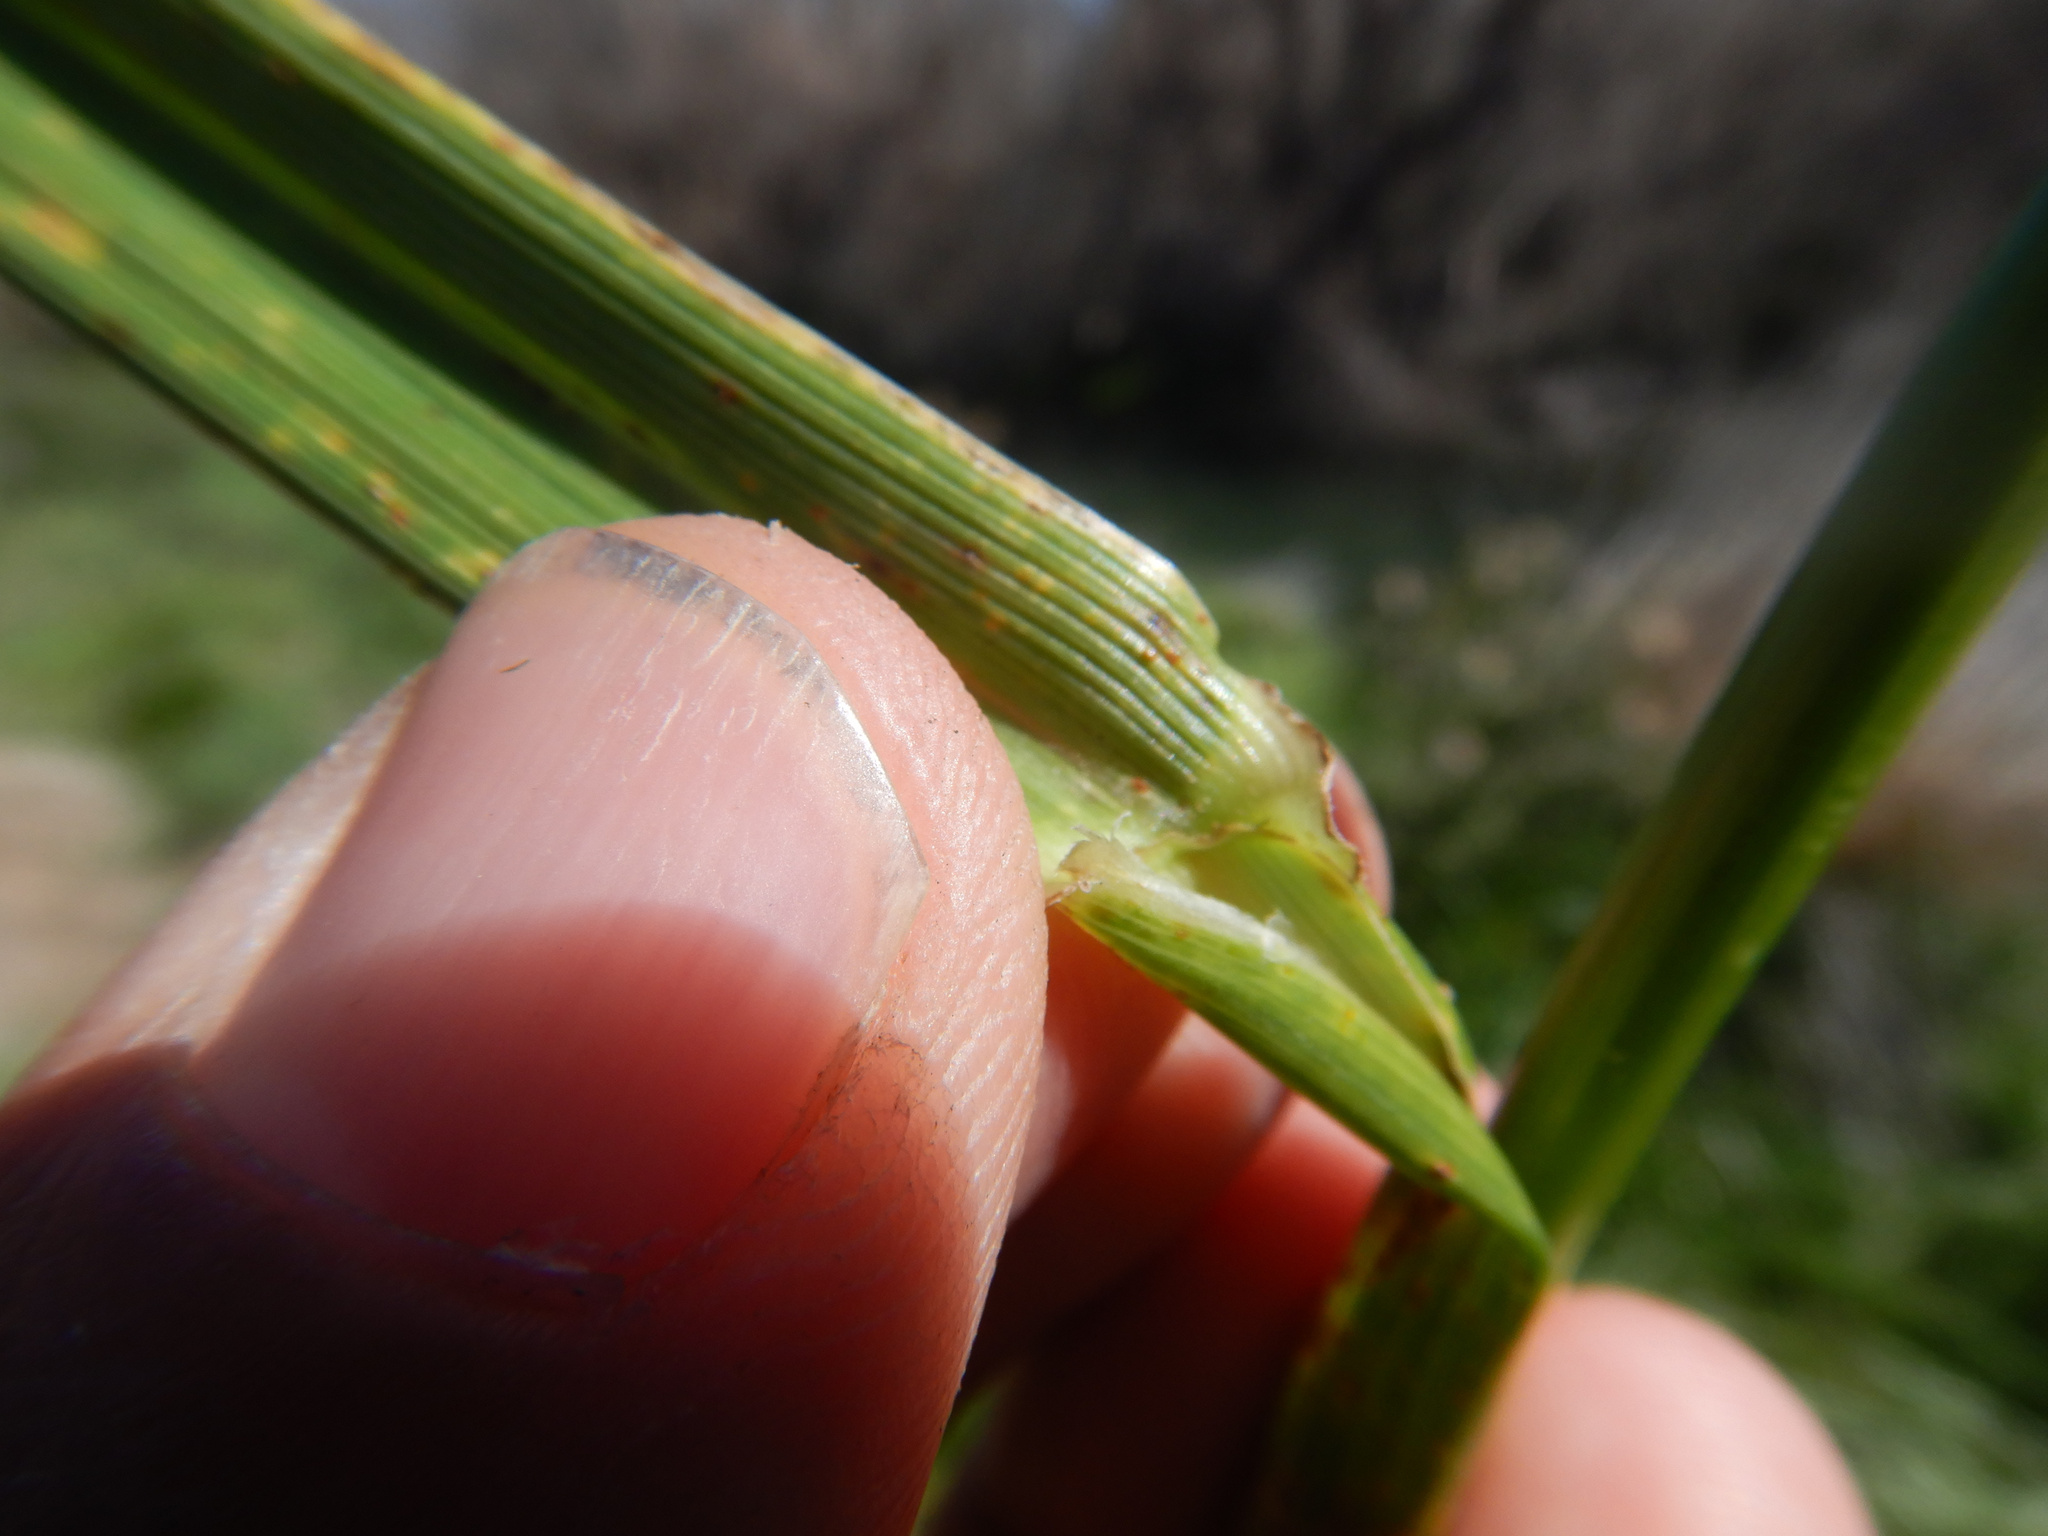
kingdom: Plantae
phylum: Tracheophyta
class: Liliopsida
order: Poales
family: Poaceae
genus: Lolium
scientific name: Lolium arundinaceum
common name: Reed fescue
